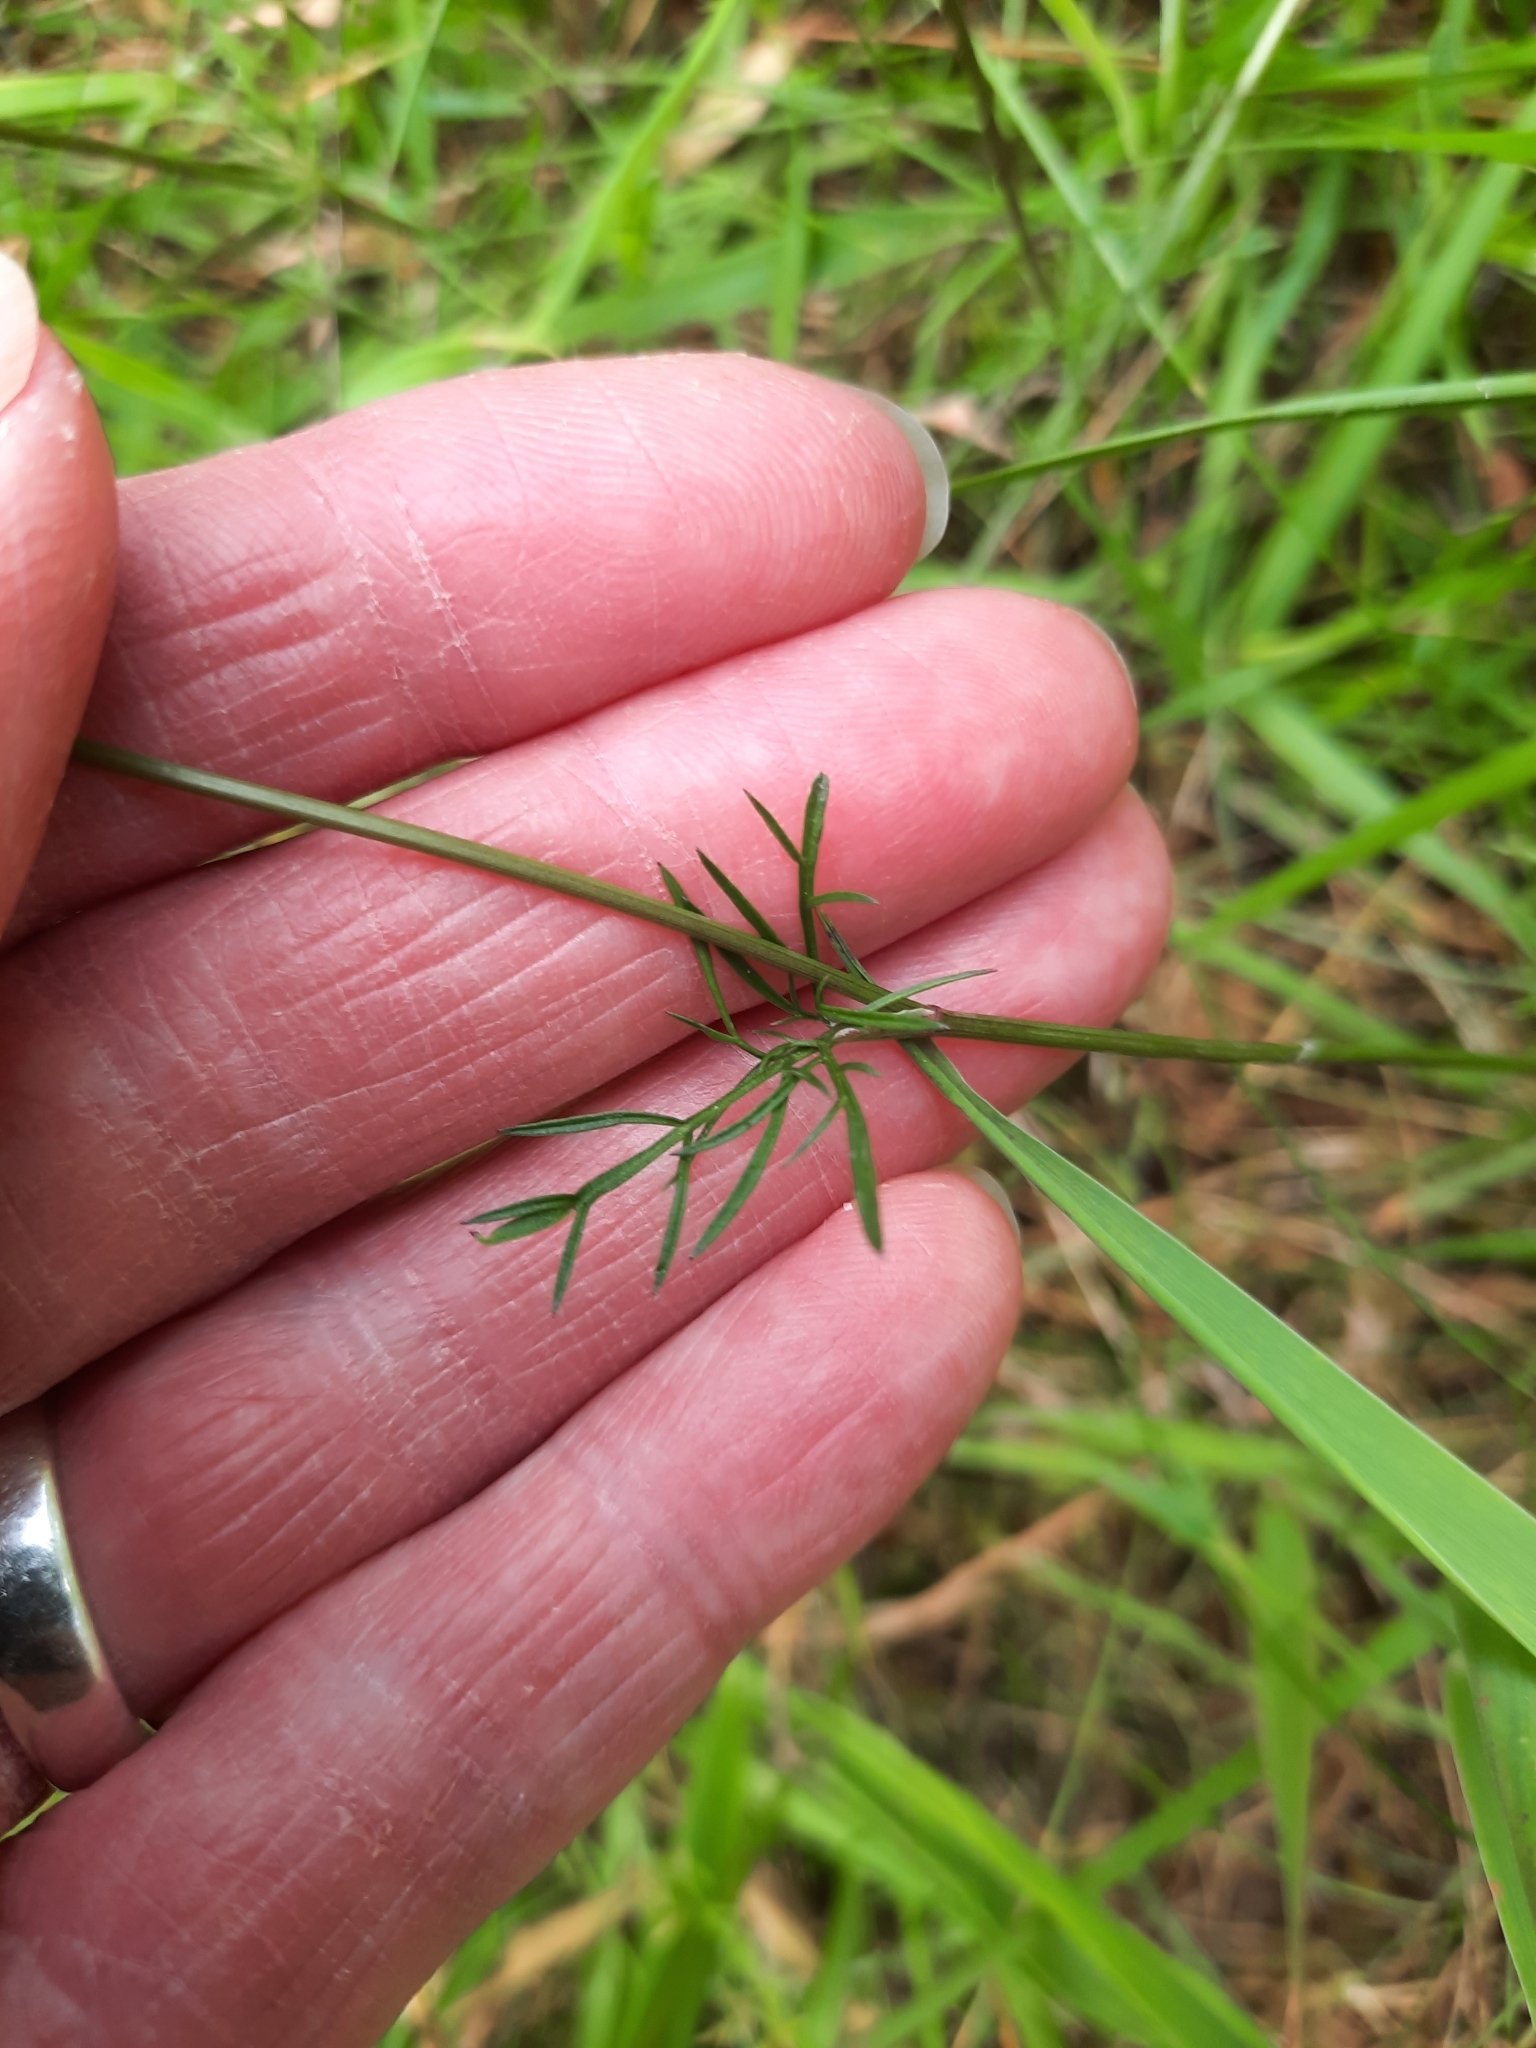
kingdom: Plantae
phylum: Tracheophyta
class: Magnoliopsida
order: Apiales
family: Apiaceae
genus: Conopodium
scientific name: Conopodium majus
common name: Pignut
